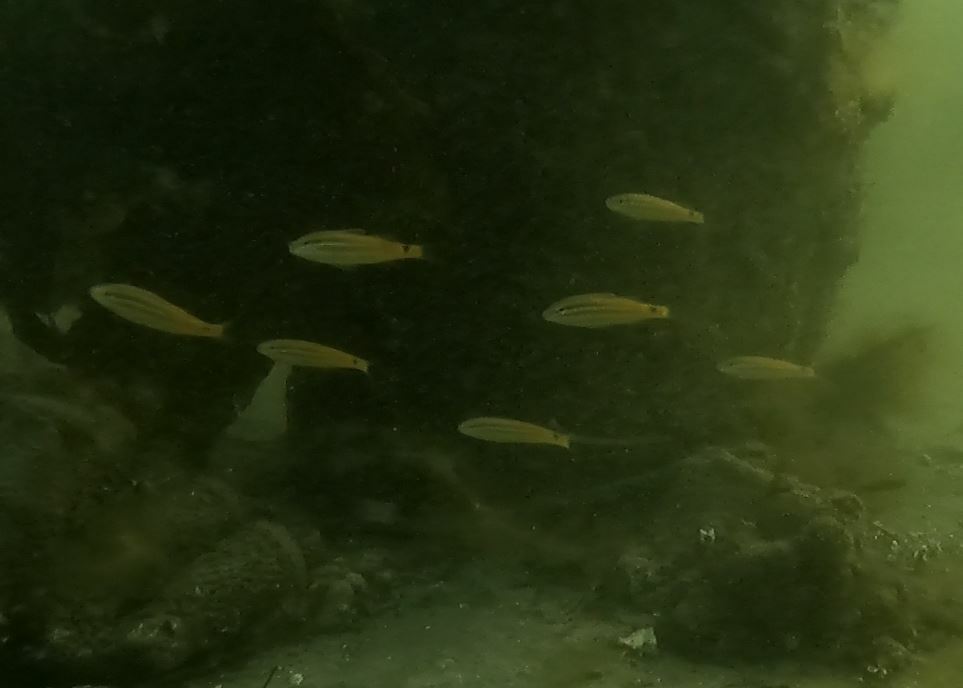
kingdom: Animalia
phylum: Chordata
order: Perciformes
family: Mullidae
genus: Parupeneus
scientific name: Parupeneus spilurus
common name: Blackspot goatfish
